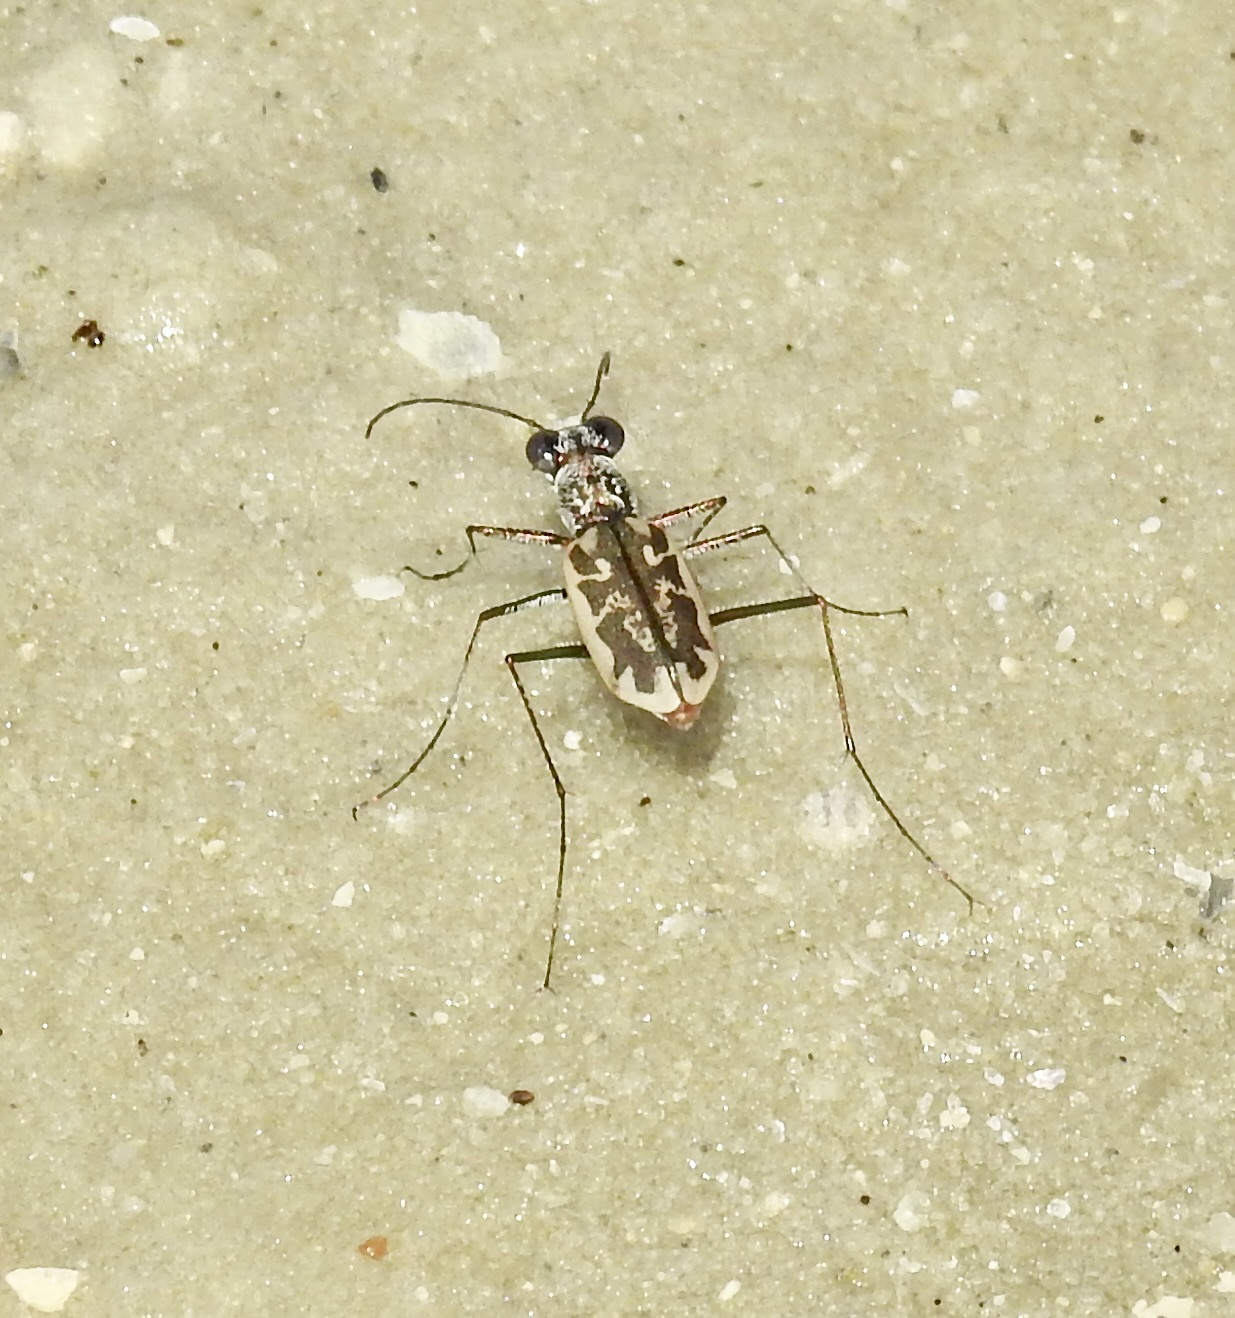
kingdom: Animalia
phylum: Arthropoda
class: Insecta
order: Coleoptera
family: Carabidae
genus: Ellipsoptera
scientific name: Ellipsoptera hamata
